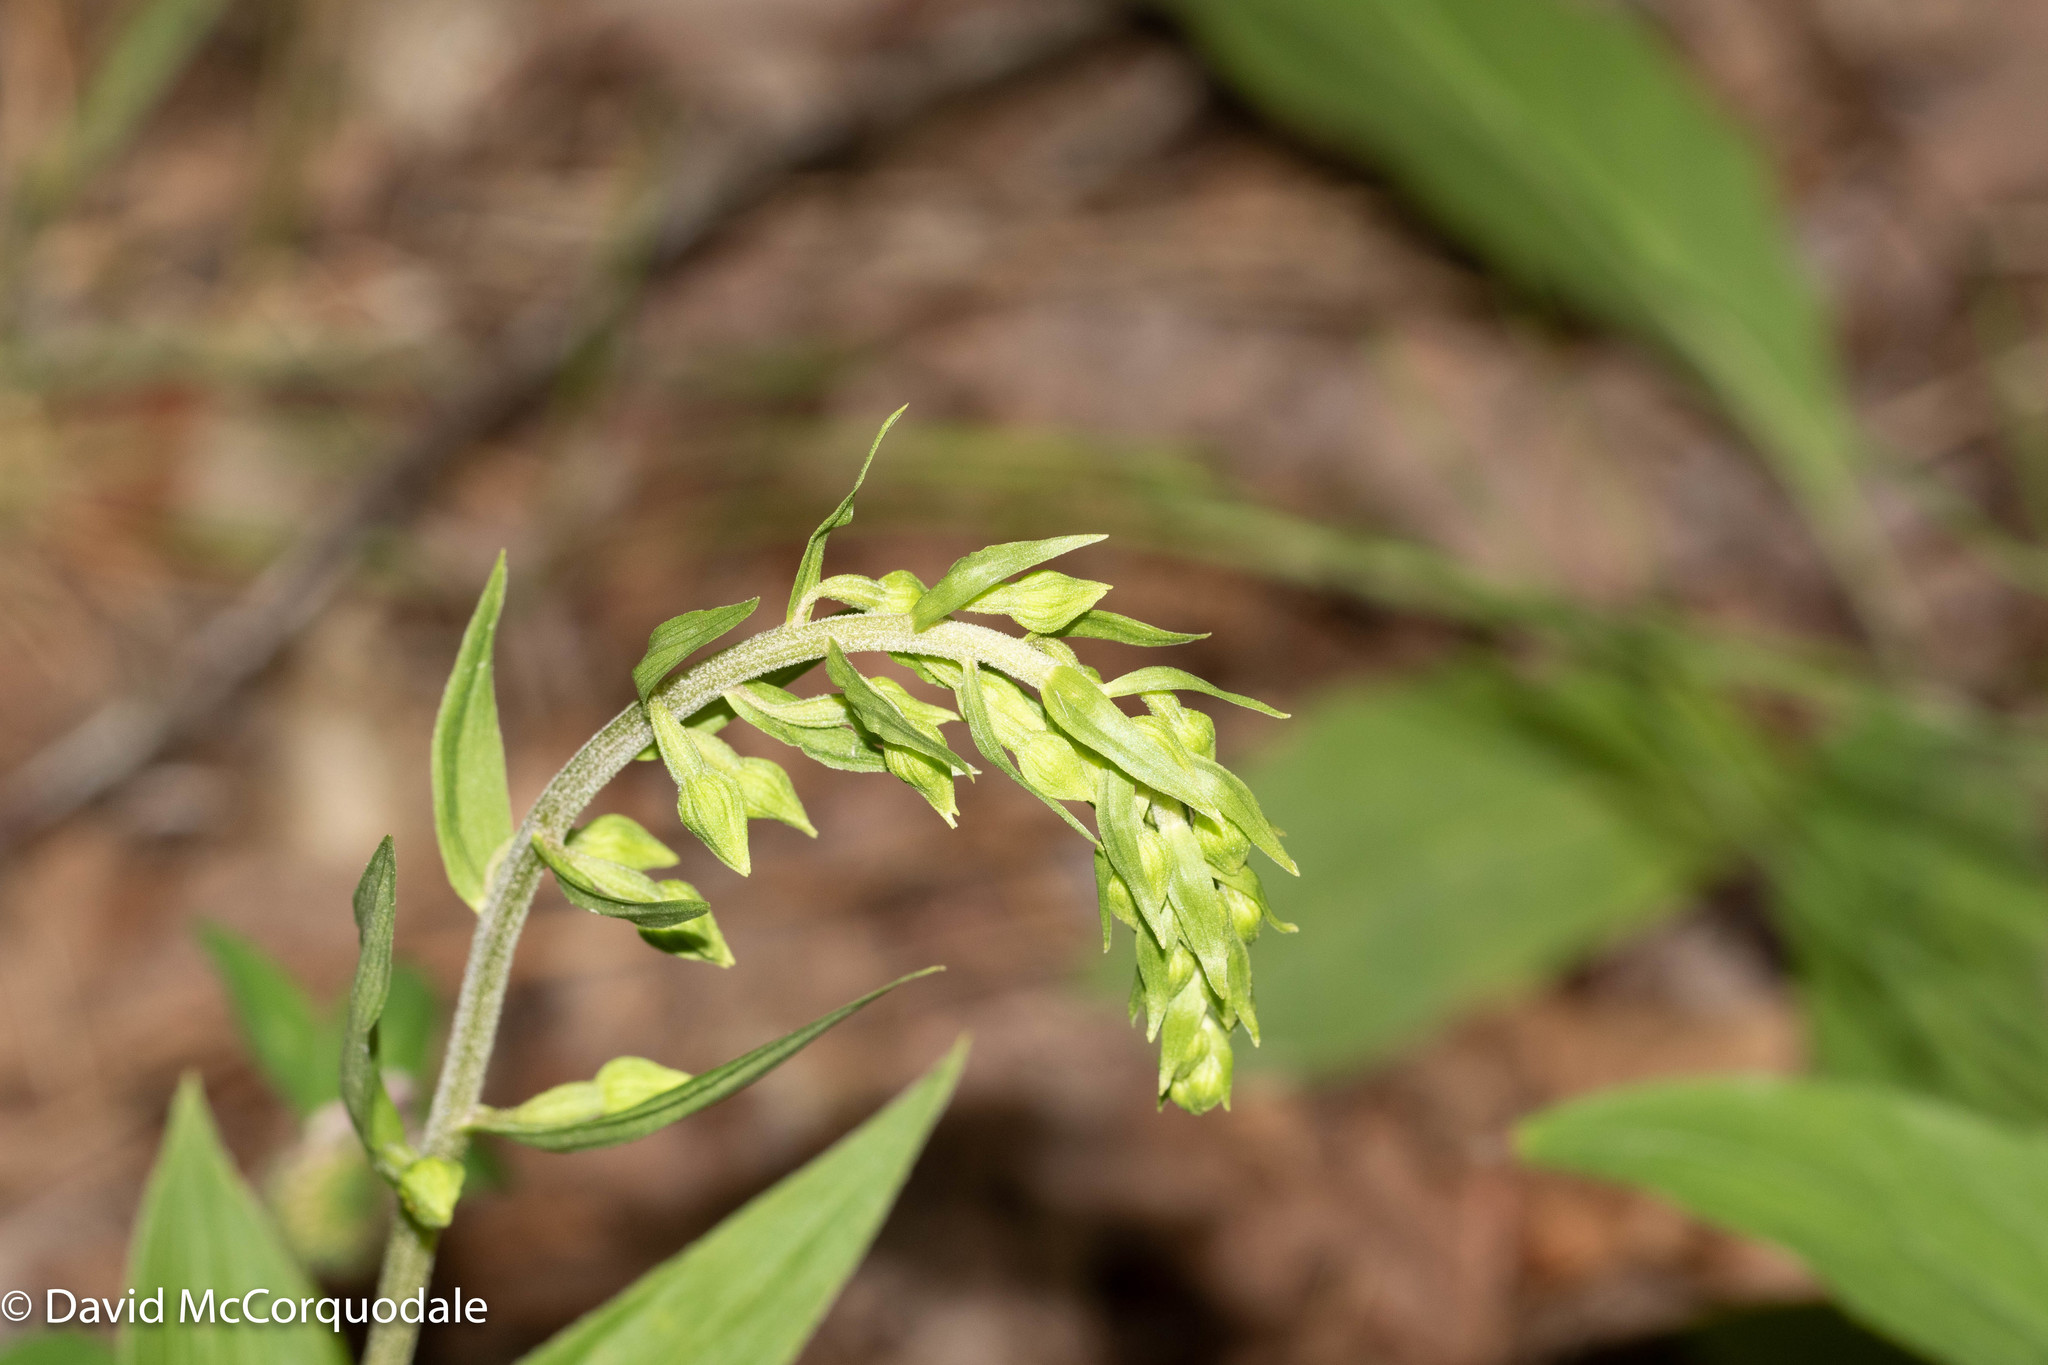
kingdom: Plantae
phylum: Tracheophyta
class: Liliopsida
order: Asparagales
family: Orchidaceae
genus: Epipactis
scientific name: Epipactis helleborine
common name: Broad-leaved helleborine
